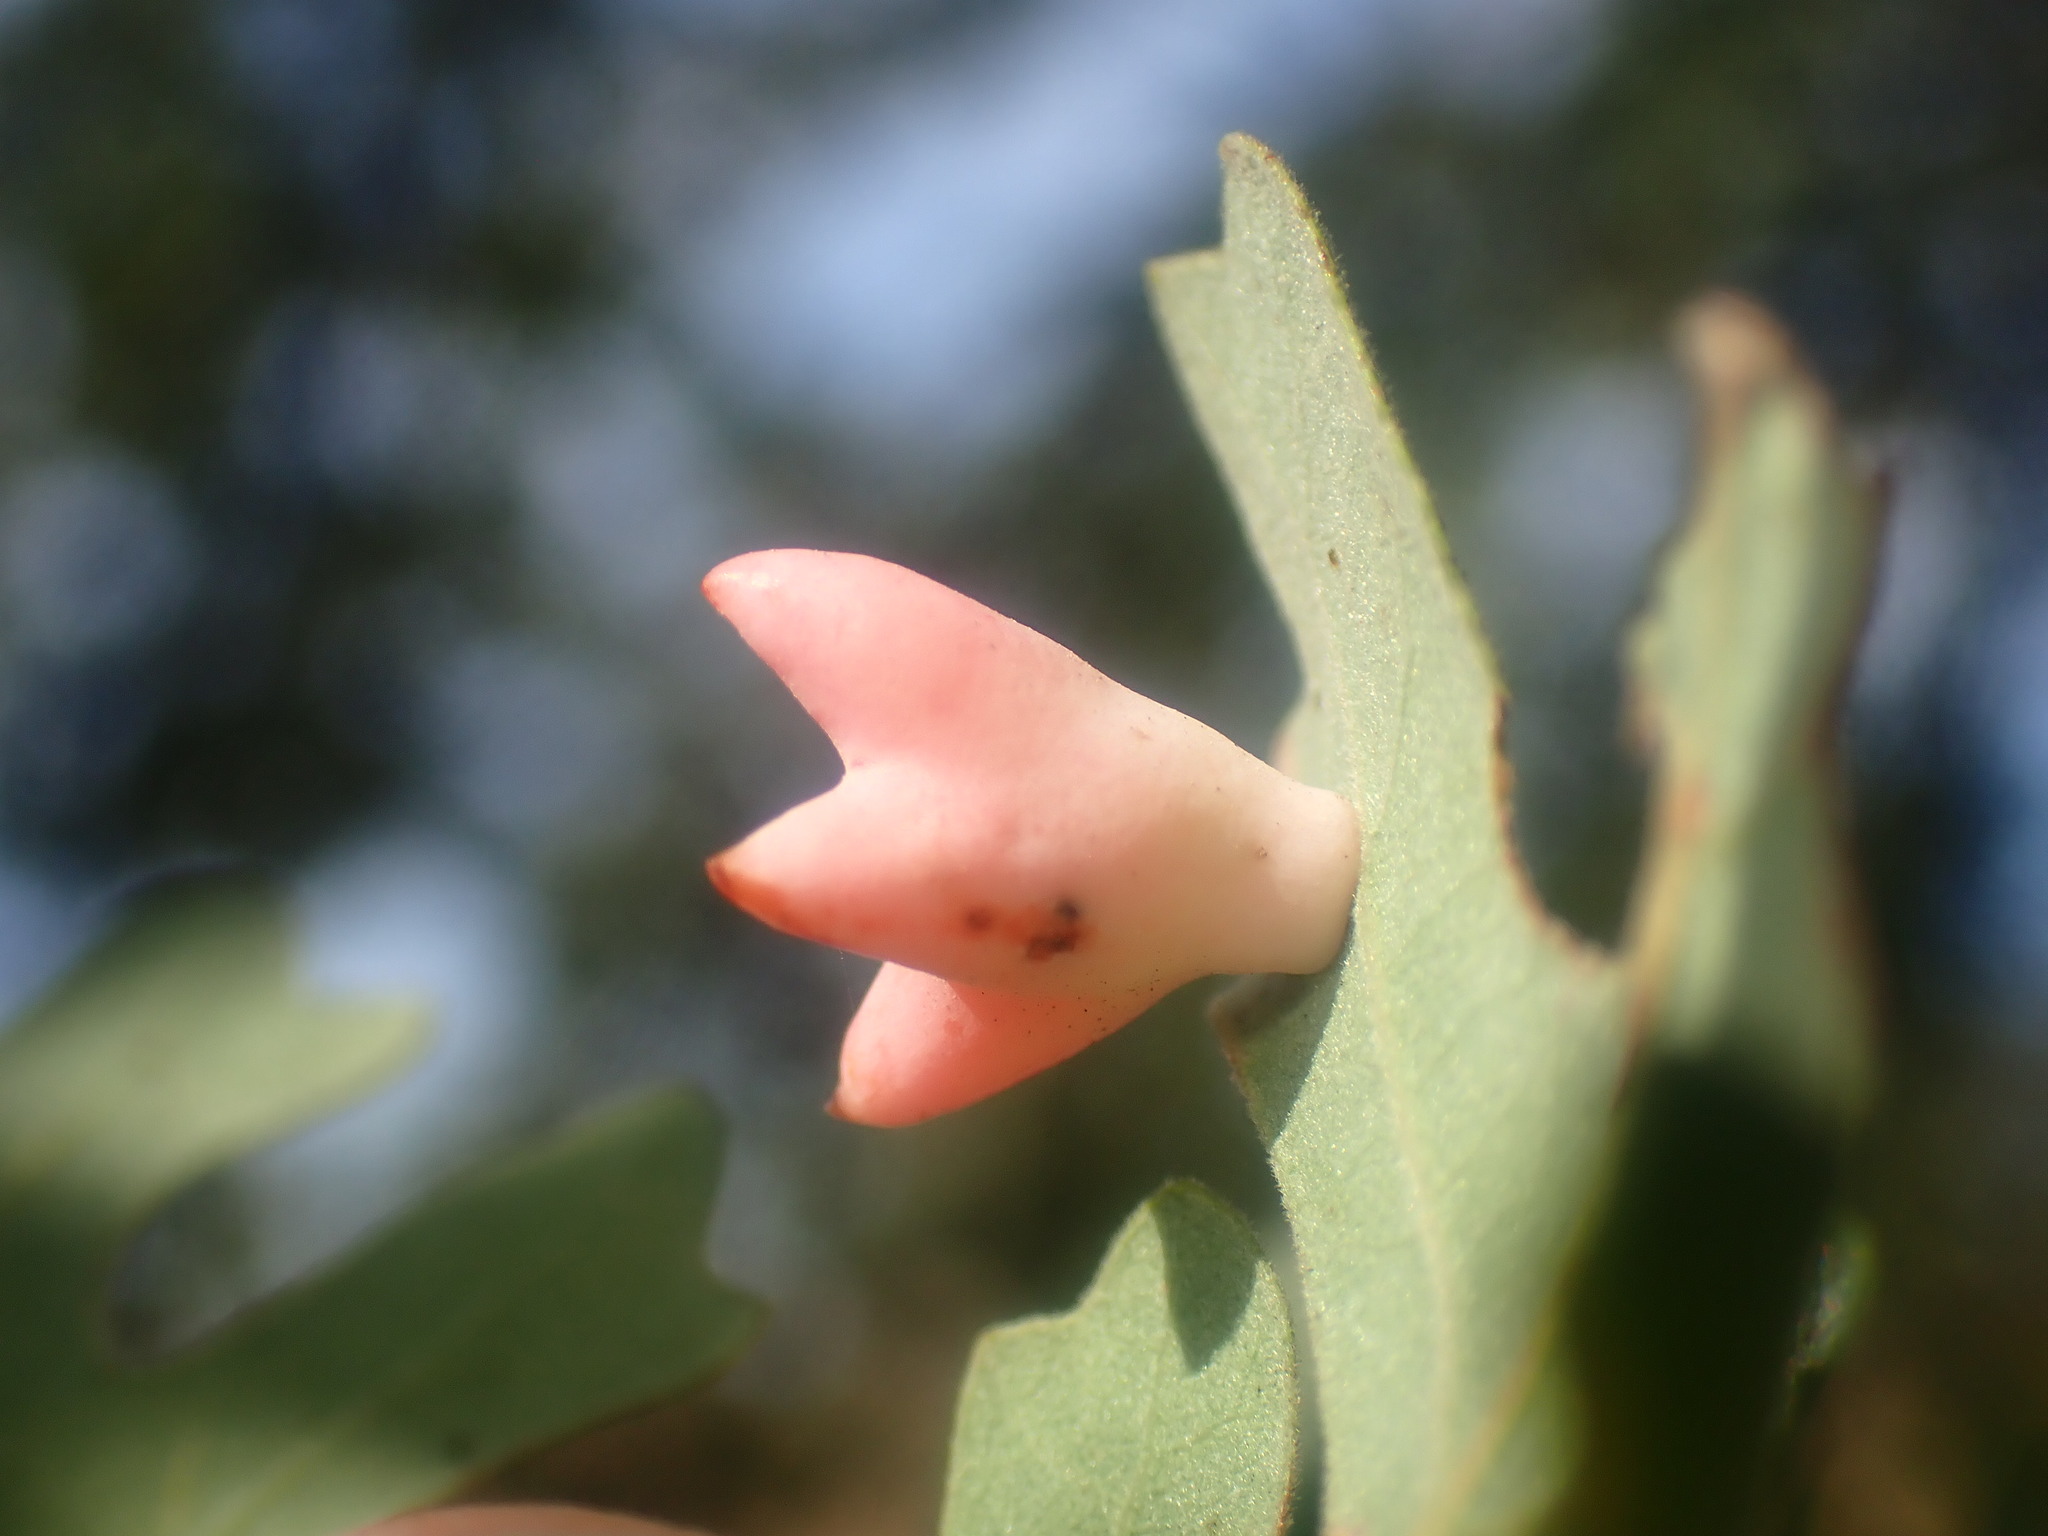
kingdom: Animalia
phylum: Arthropoda
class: Insecta
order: Hymenoptera
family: Cynipidae
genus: Cynips
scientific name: Cynips douglasi
